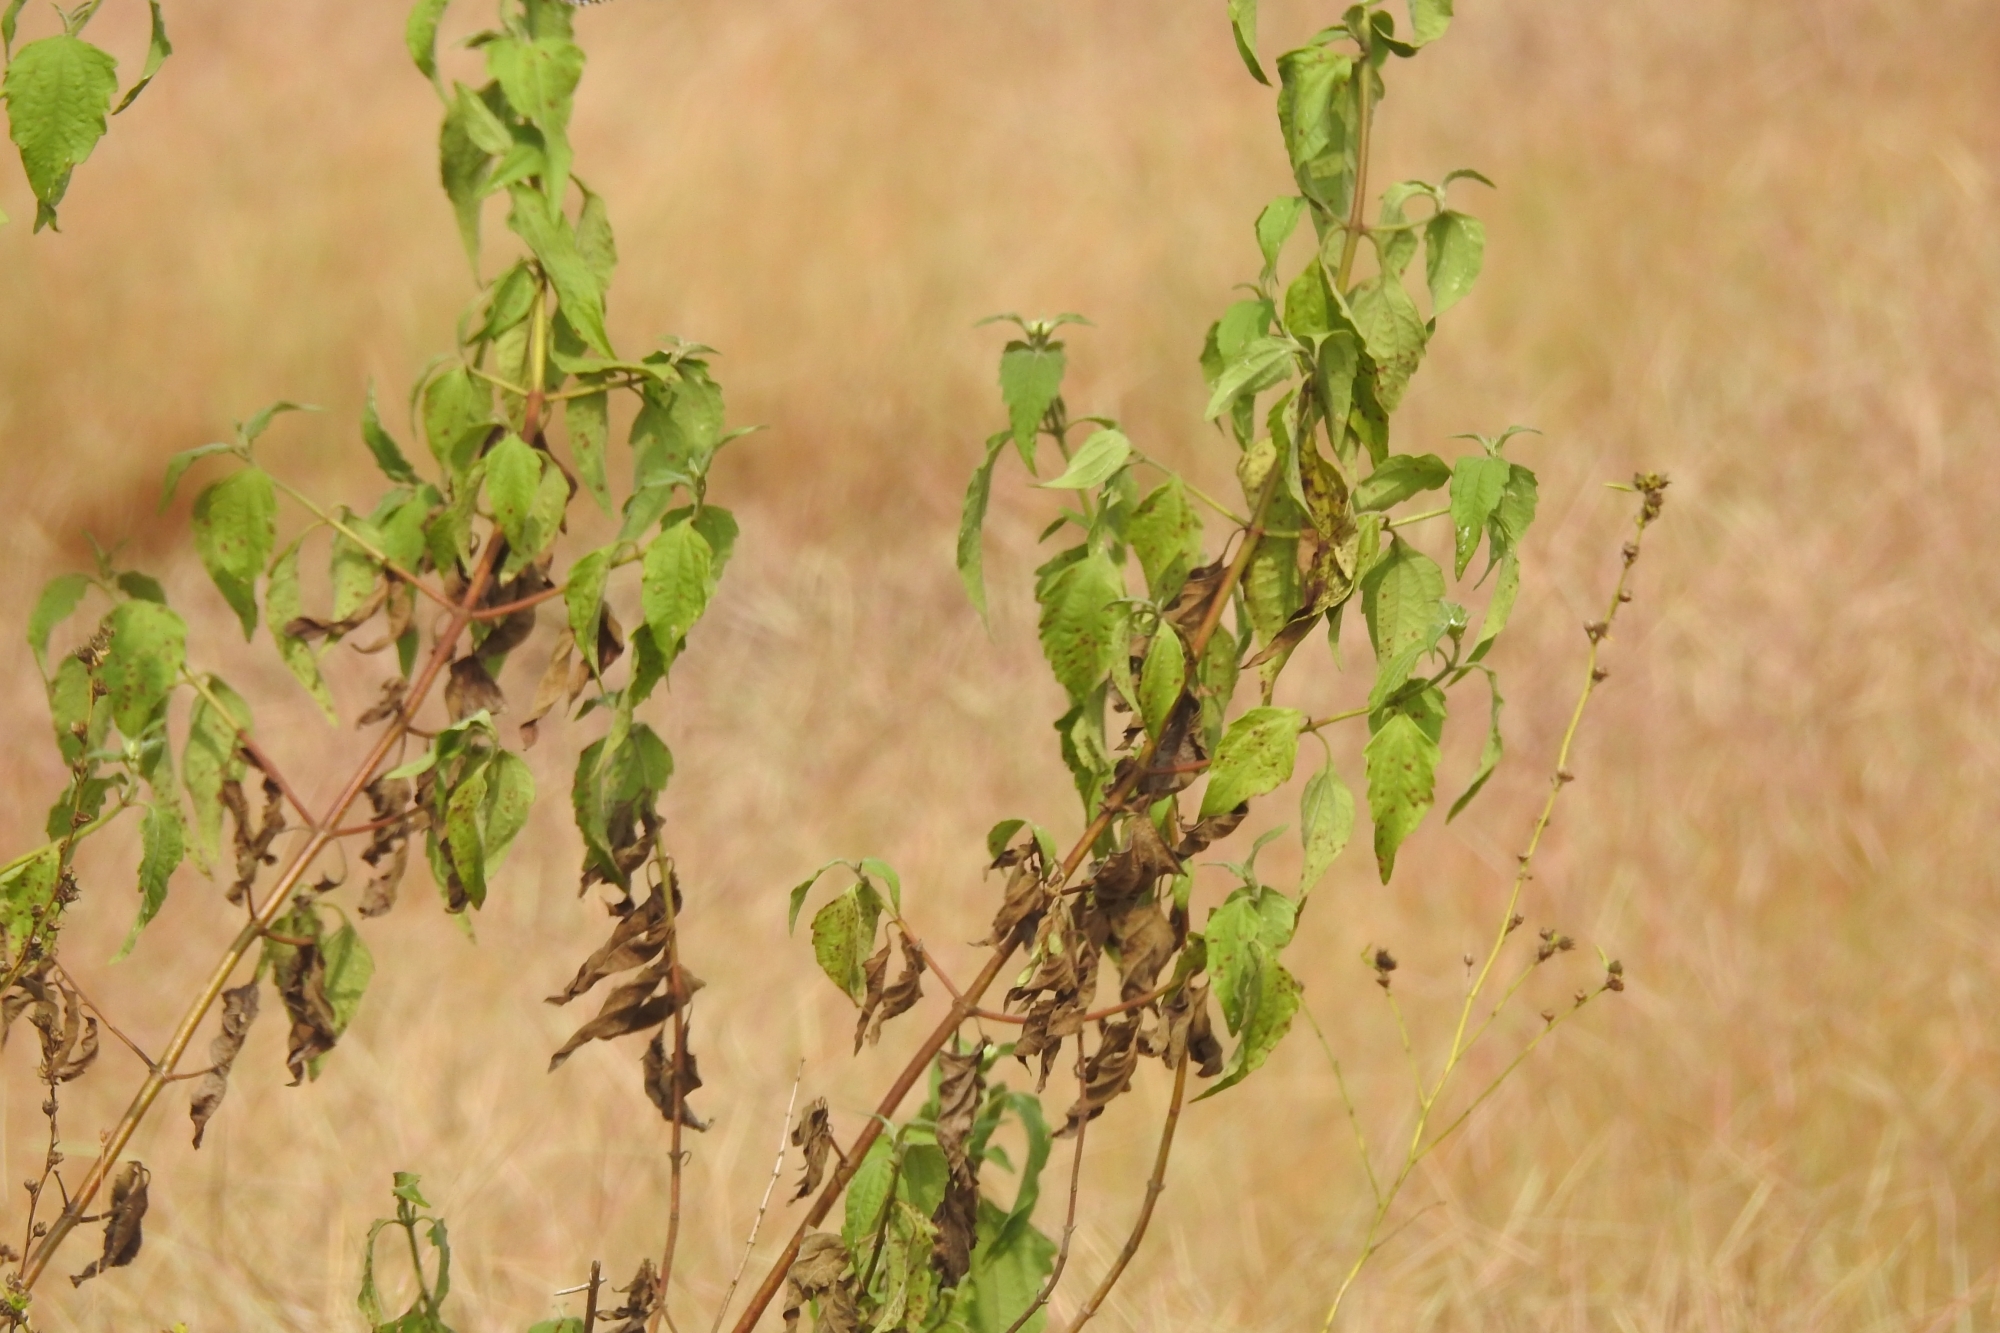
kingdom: Plantae
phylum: Tracheophyta
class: Magnoliopsida
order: Asterales
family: Asteraceae
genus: Chromolaena
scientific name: Chromolaena odorata
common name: Siamweed
